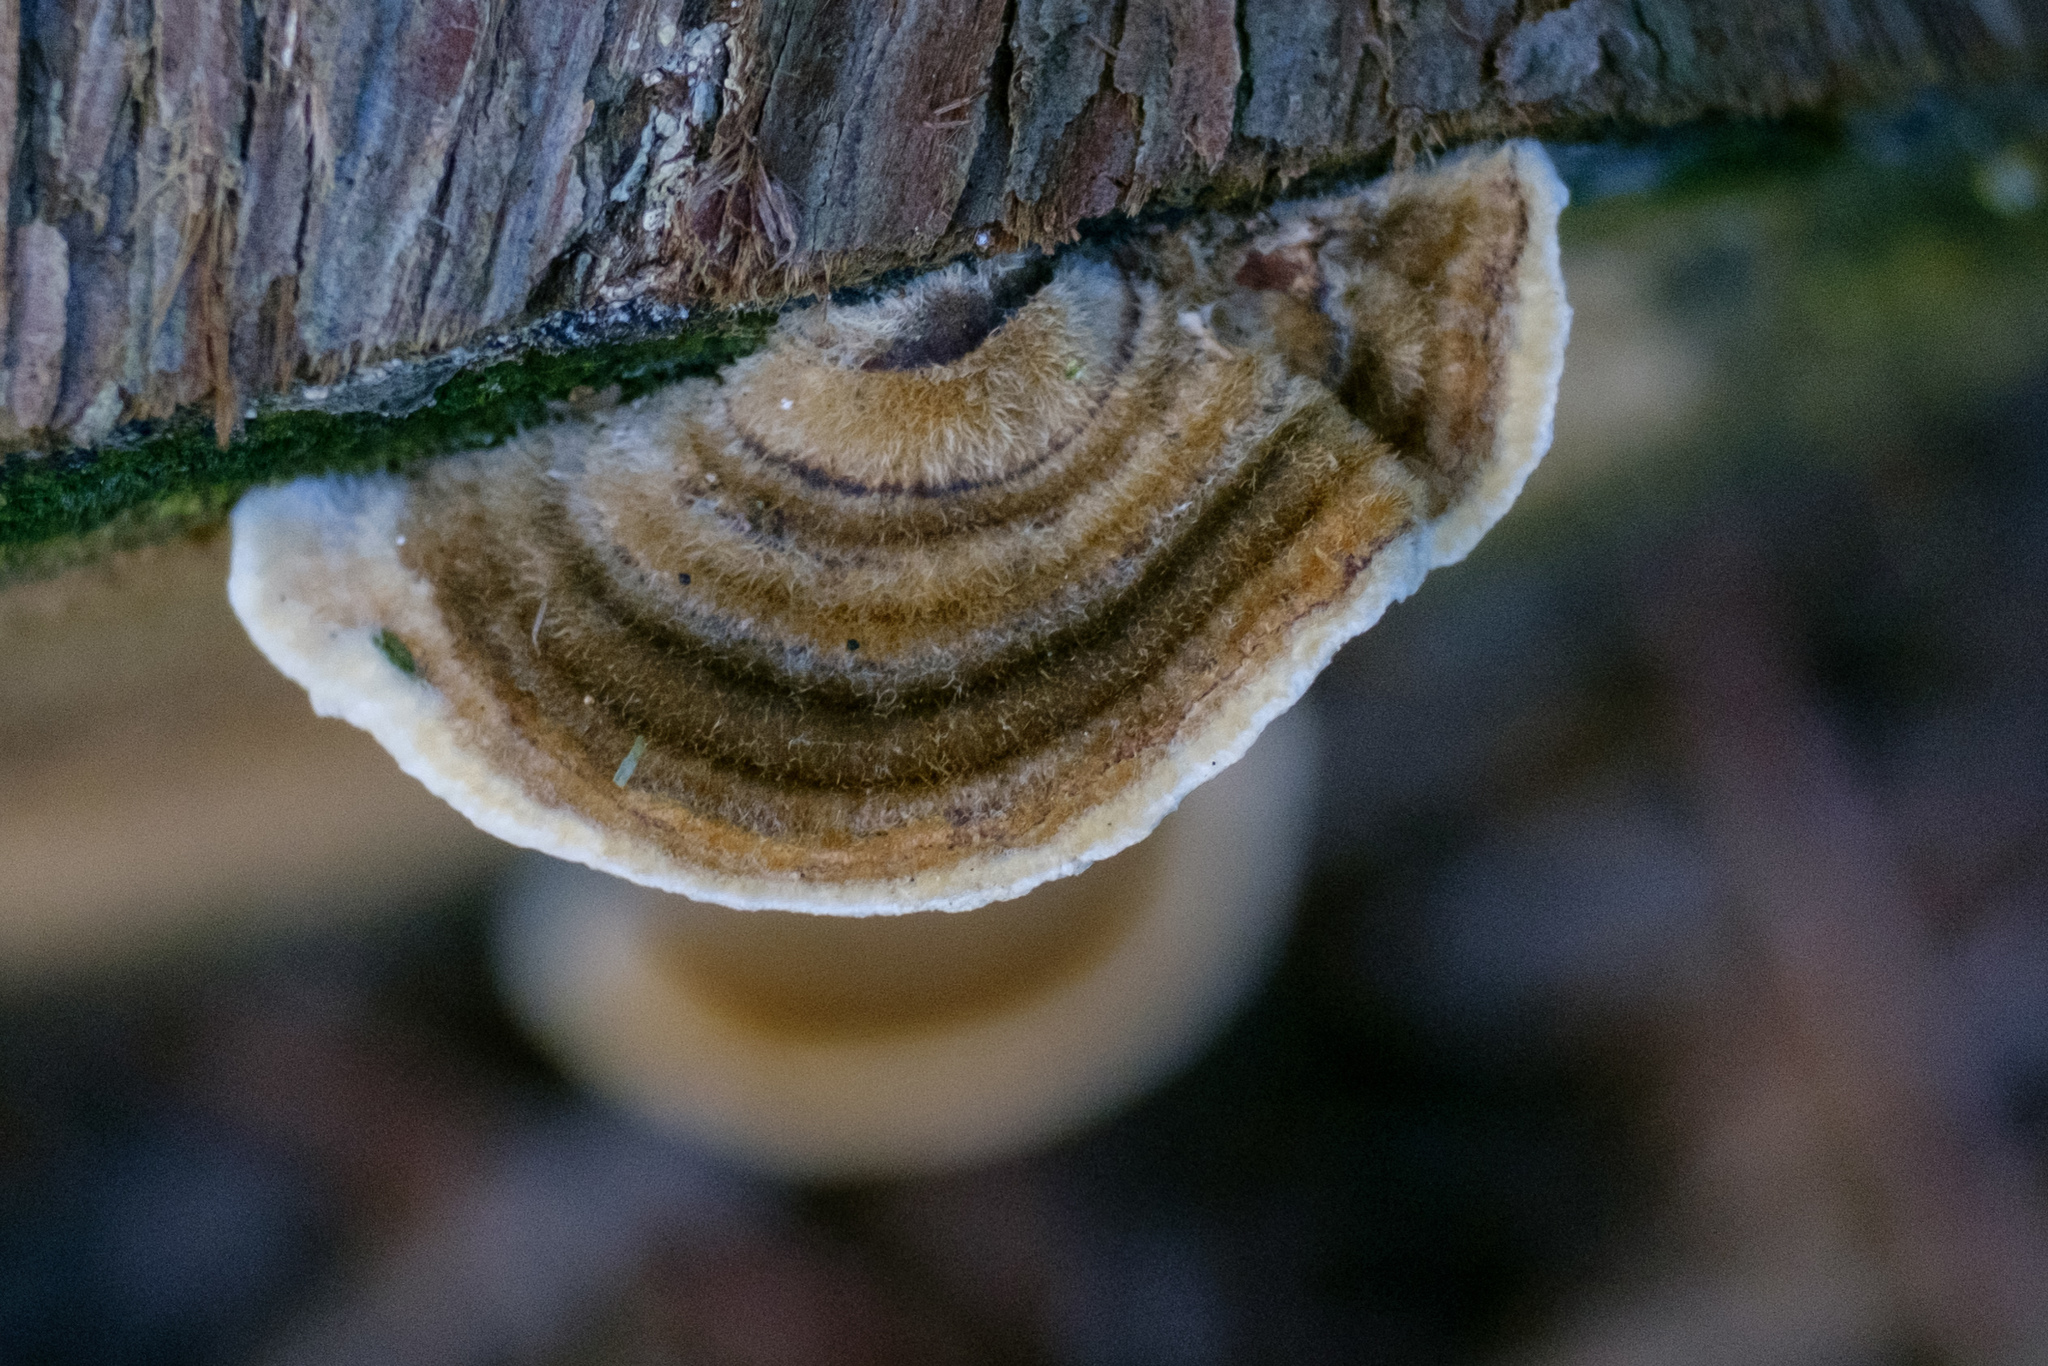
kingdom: Fungi
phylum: Basidiomycota
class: Agaricomycetes
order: Polyporales
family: Polyporaceae
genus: Trametes
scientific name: Trametes versicolor
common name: Turkeytail
